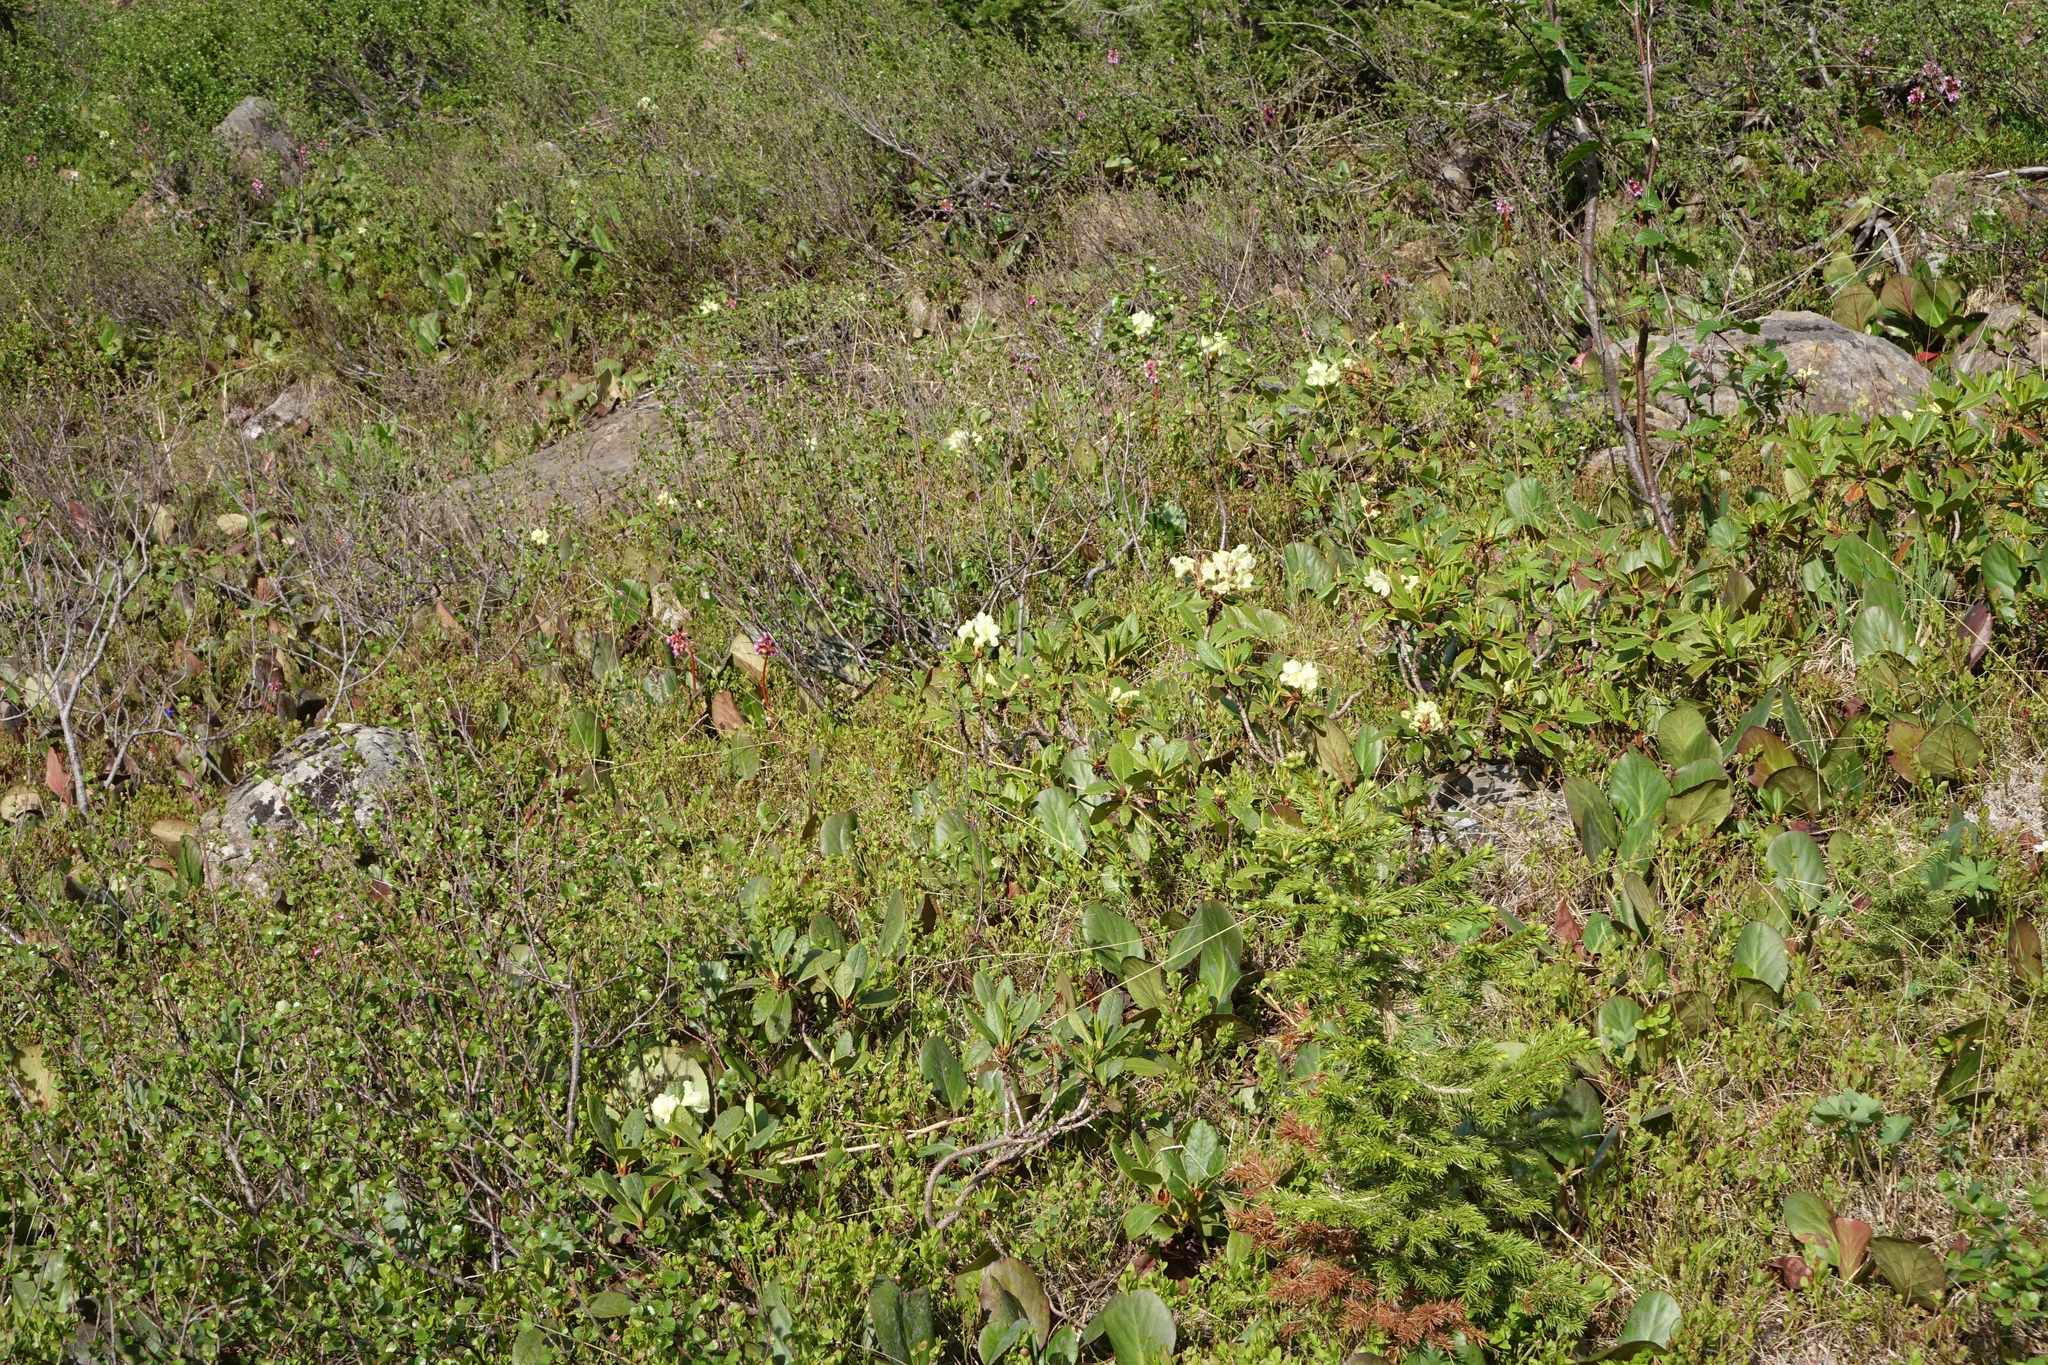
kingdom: Plantae
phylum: Tracheophyta
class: Magnoliopsida
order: Ericales
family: Ericaceae
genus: Rhododendron
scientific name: Rhododendron aureum
